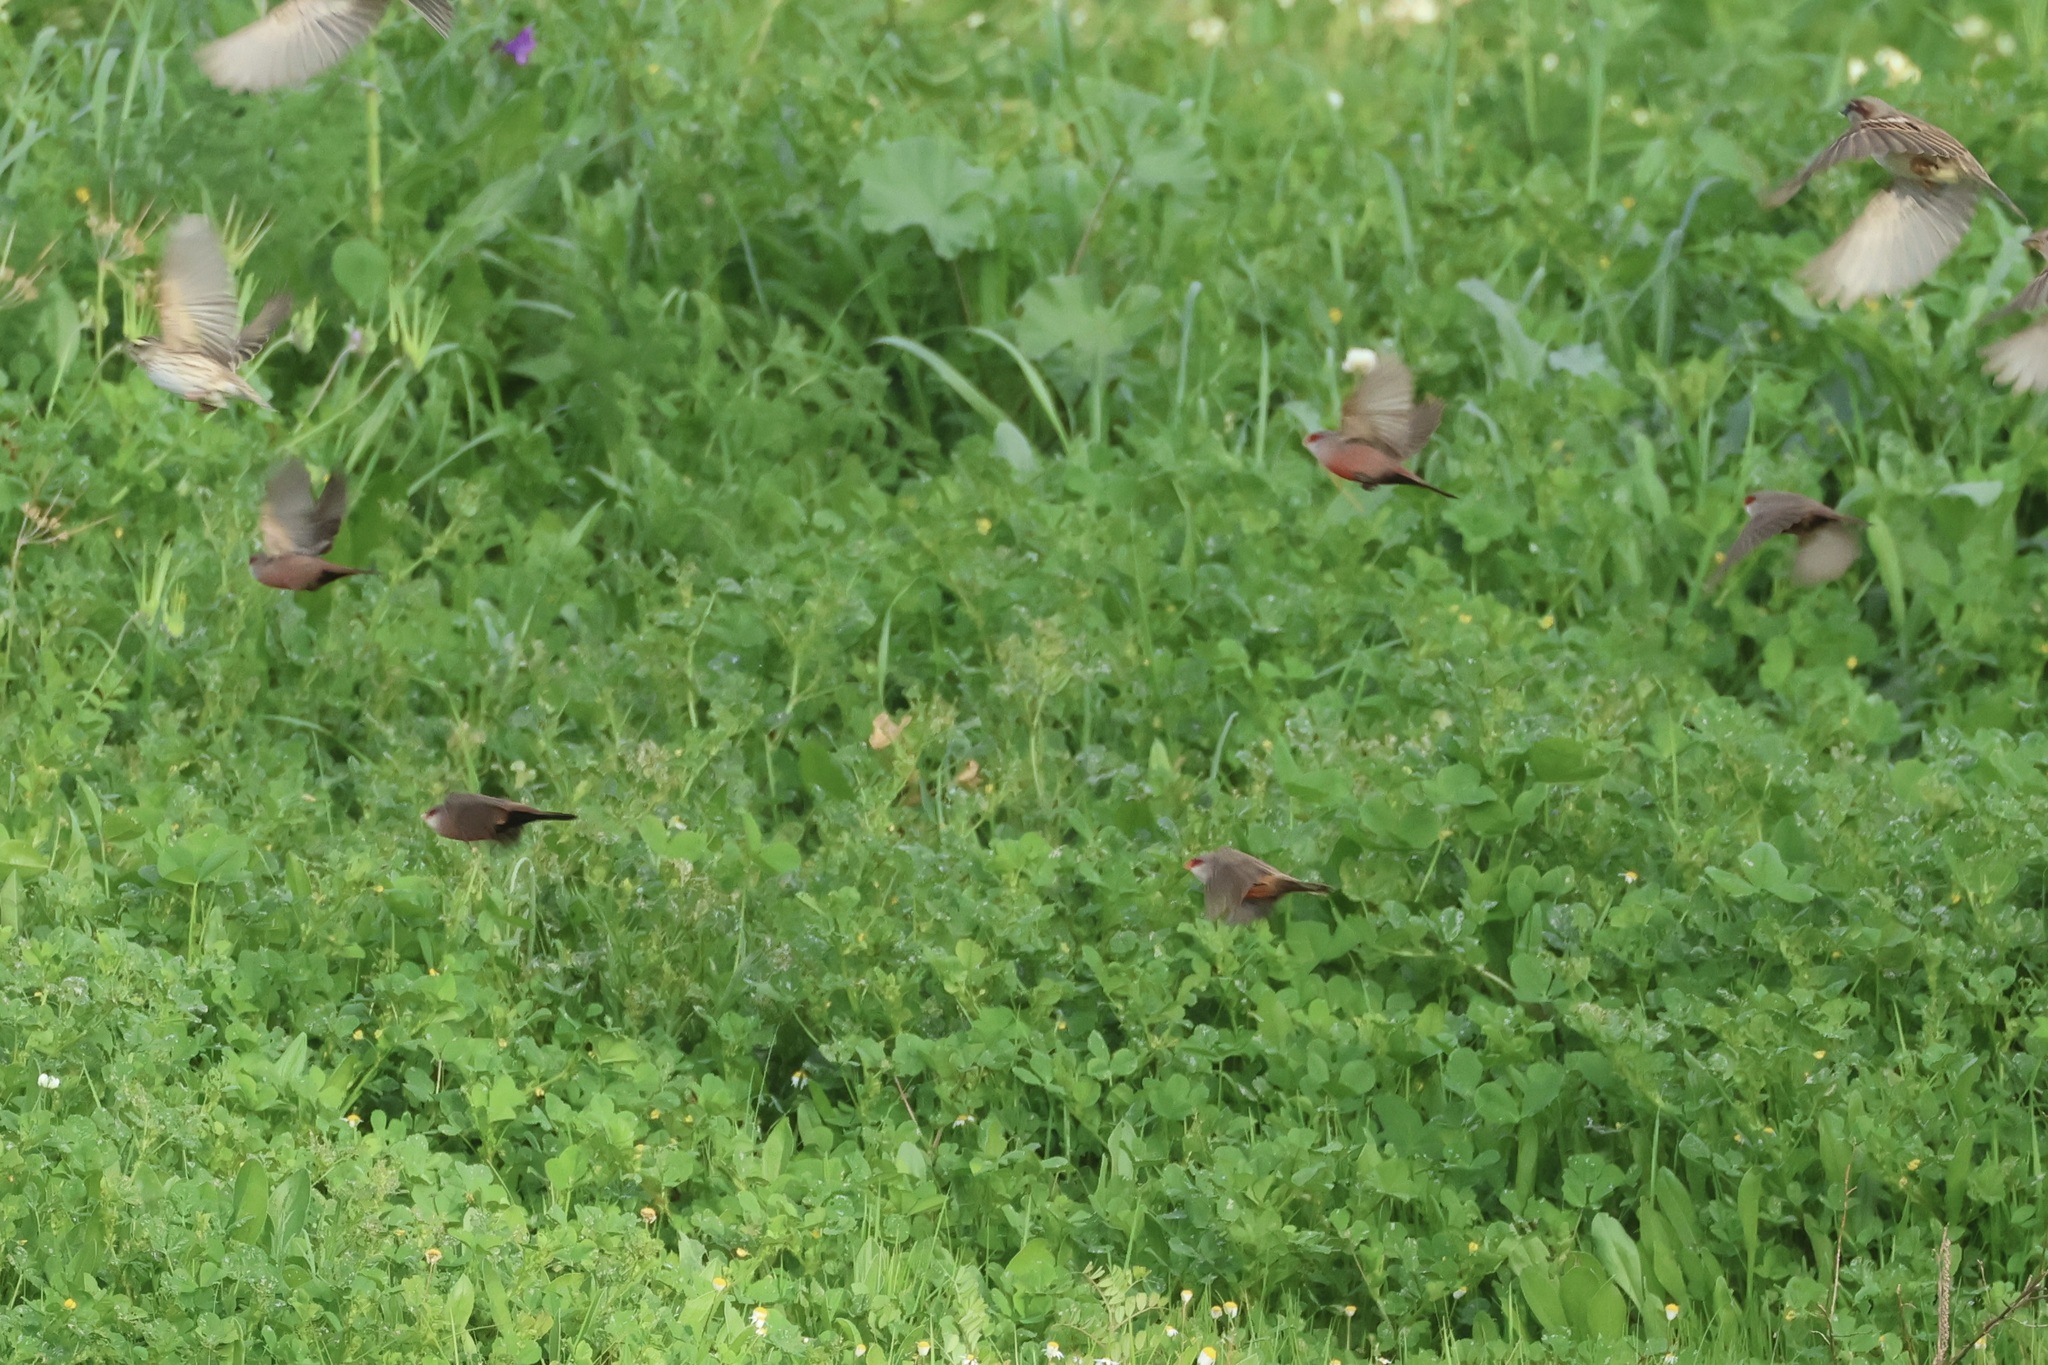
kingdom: Animalia
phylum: Chordata
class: Aves
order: Passeriformes
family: Estrildidae
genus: Estrilda
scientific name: Estrilda astrild
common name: Common waxbill
